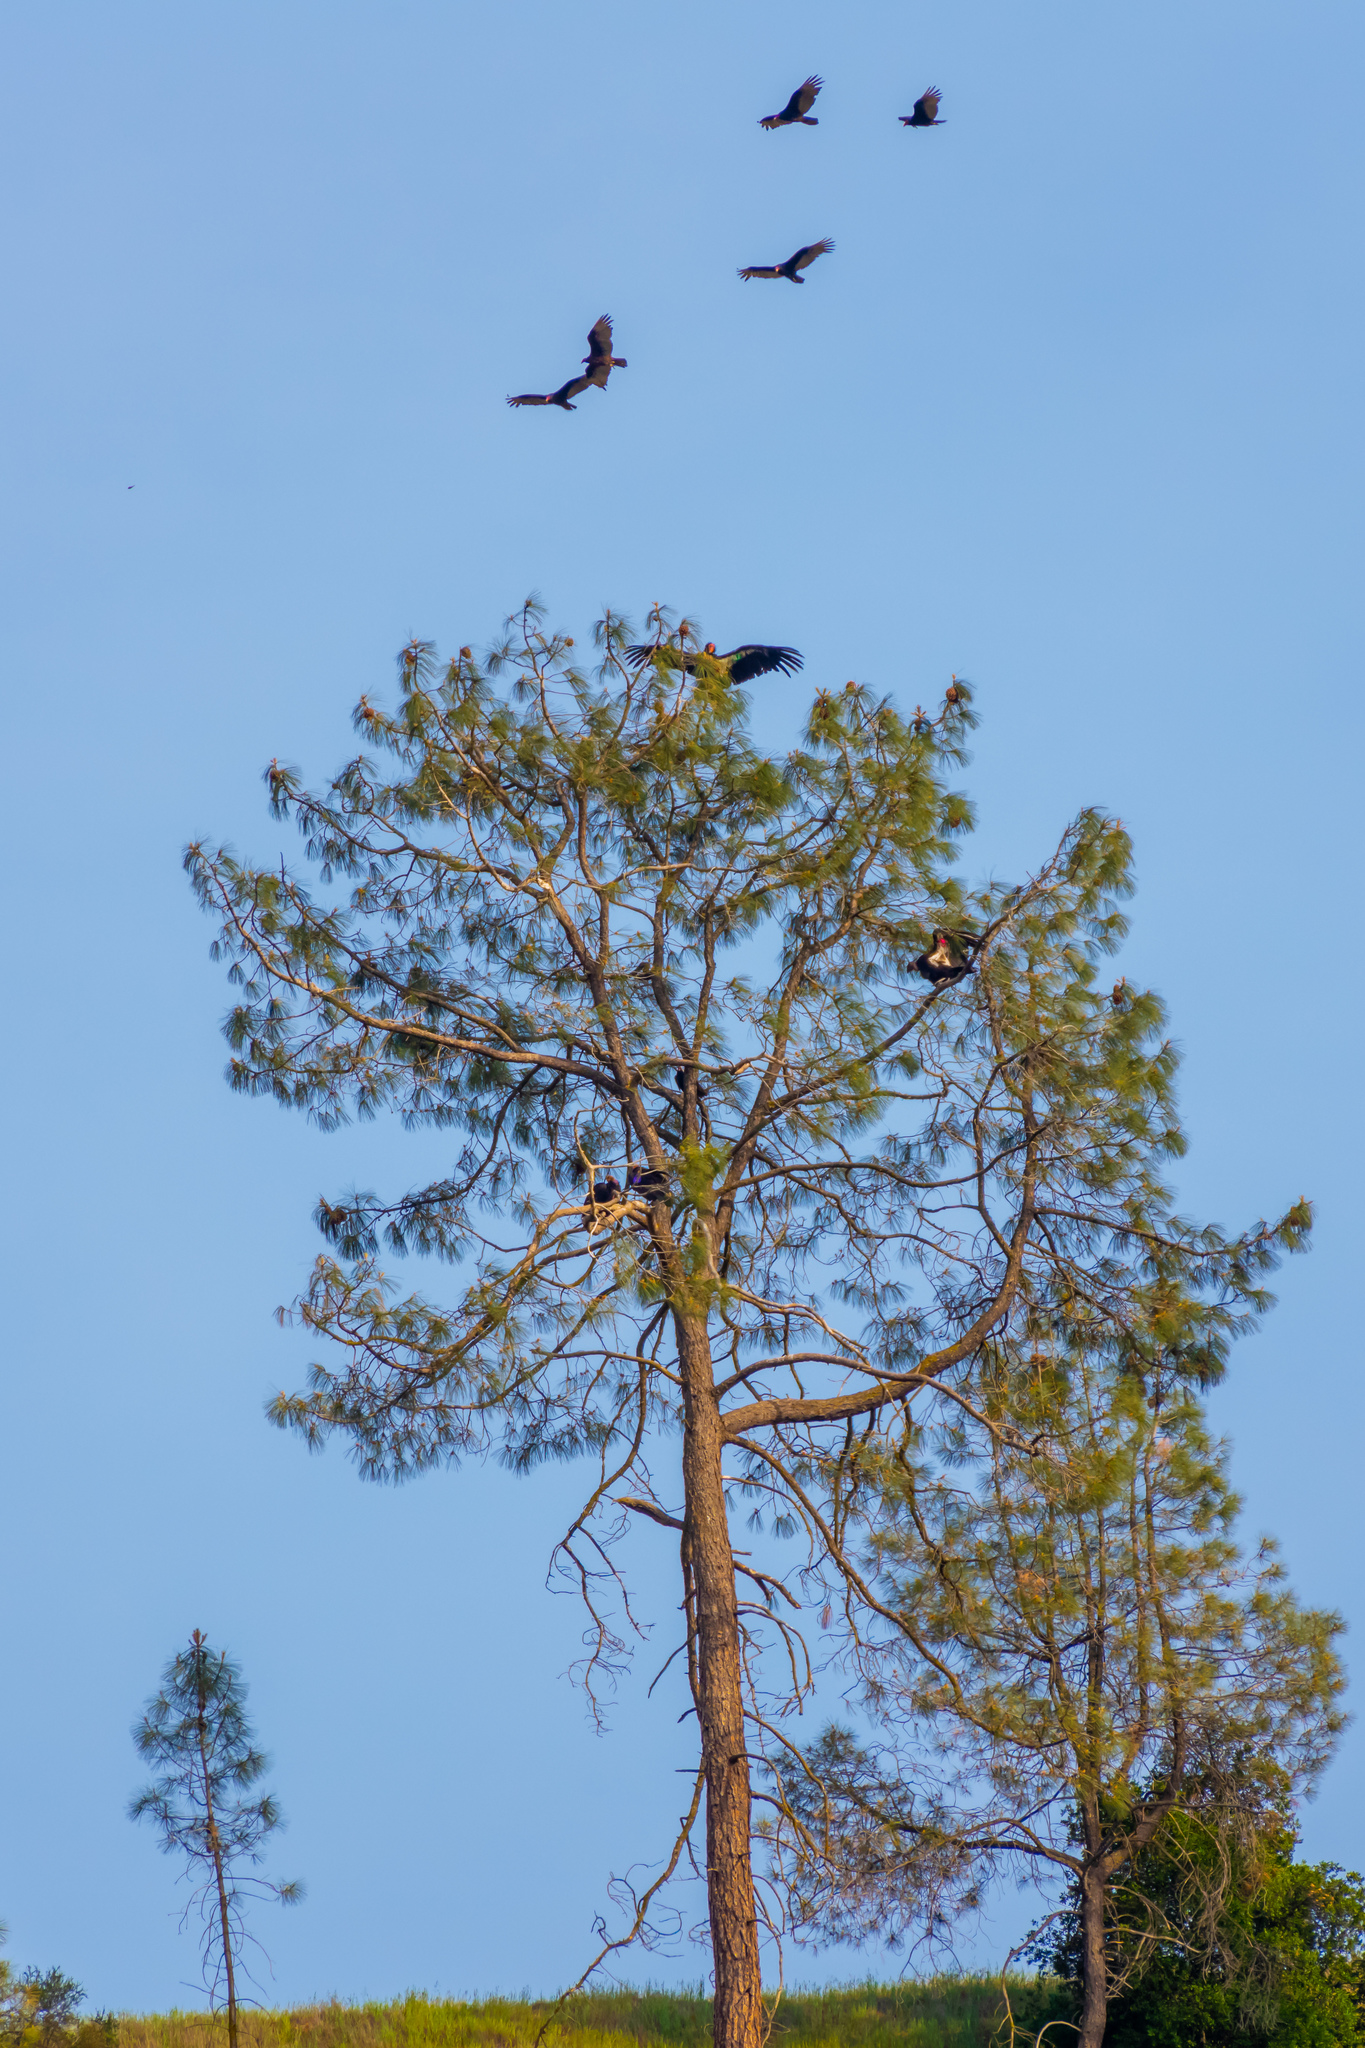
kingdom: Animalia
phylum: Chordata
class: Aves
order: Accipitriformes
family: Cathartidae
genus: Gymnogyps
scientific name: Gymnogyps californianus
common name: California condor
